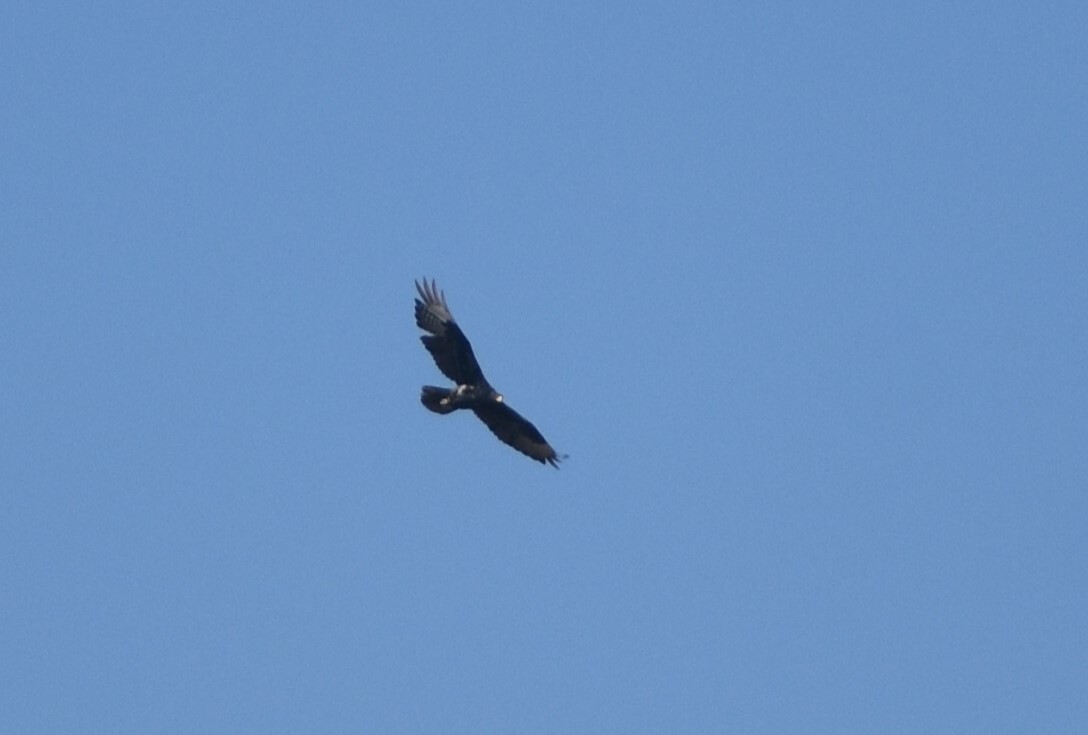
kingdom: Animalia
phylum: Chordata
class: Aves
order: Accipitriformes
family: Accipitridae
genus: Aquila
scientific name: Aquila verreauxii
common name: Verreaux's eagle
